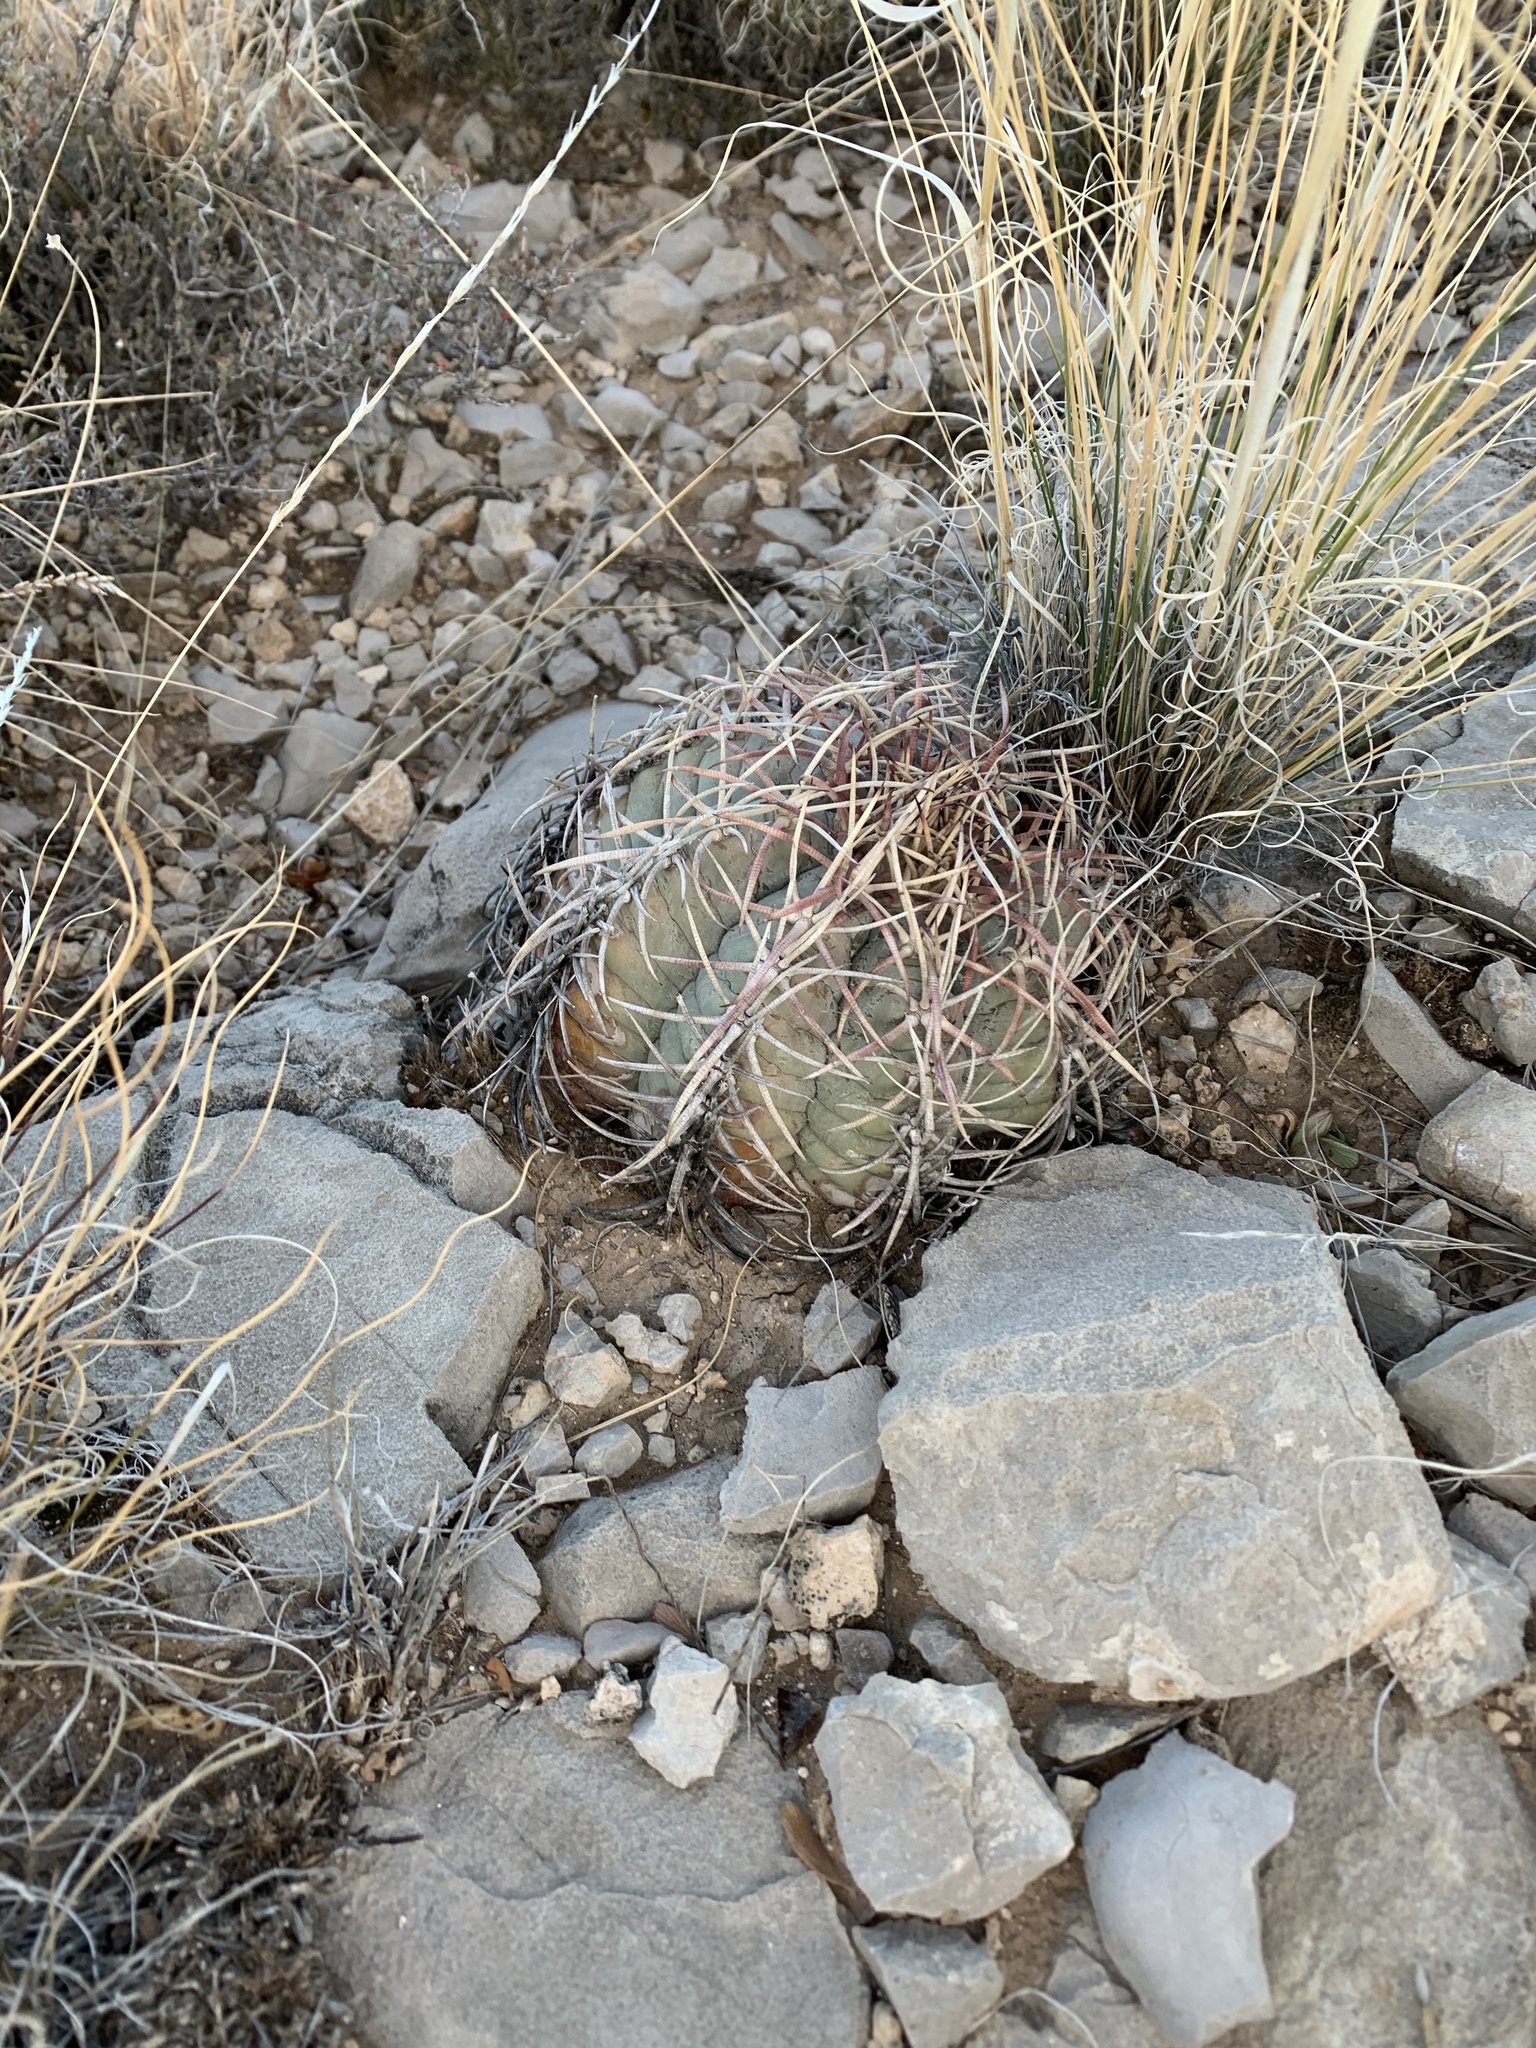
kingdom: Plantae
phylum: Tracheophyta
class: Magnoliopsida
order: Caryophyllales
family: Cactaceae
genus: Echinocactus
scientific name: Echinocactus horizonthalonius
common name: Devilshead
